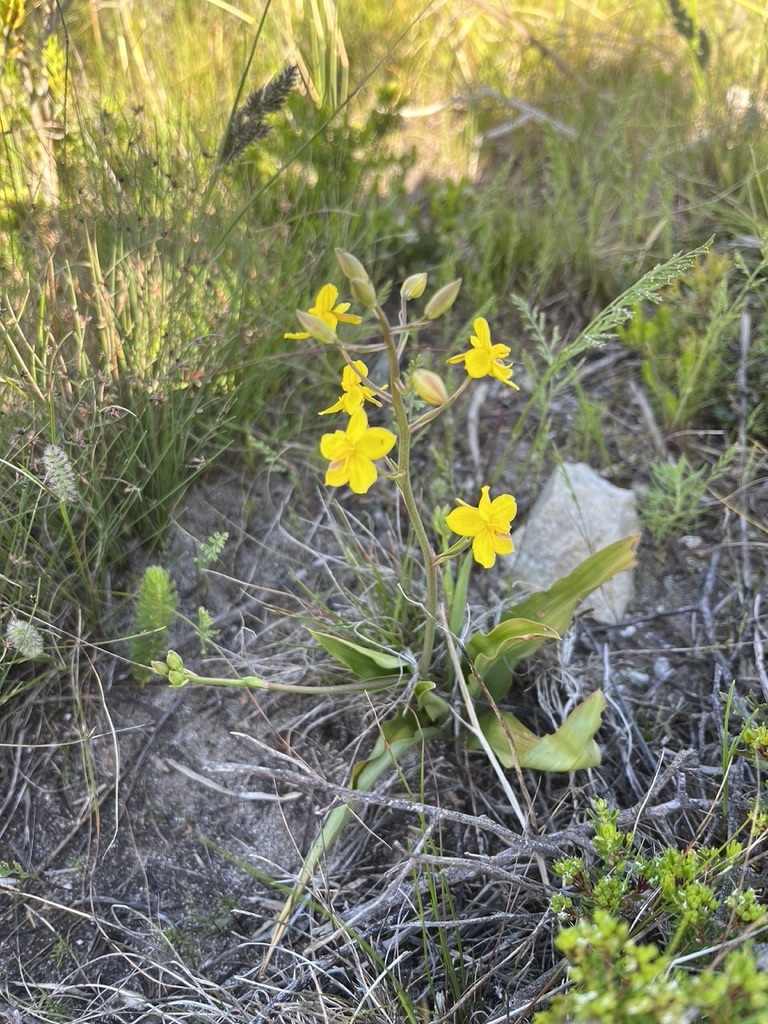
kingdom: Plantae
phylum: Tracheophyta
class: Liliopsida
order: Asparagales
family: Tecophilaeaceae
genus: Cyanella
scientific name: Cyanella lutea
